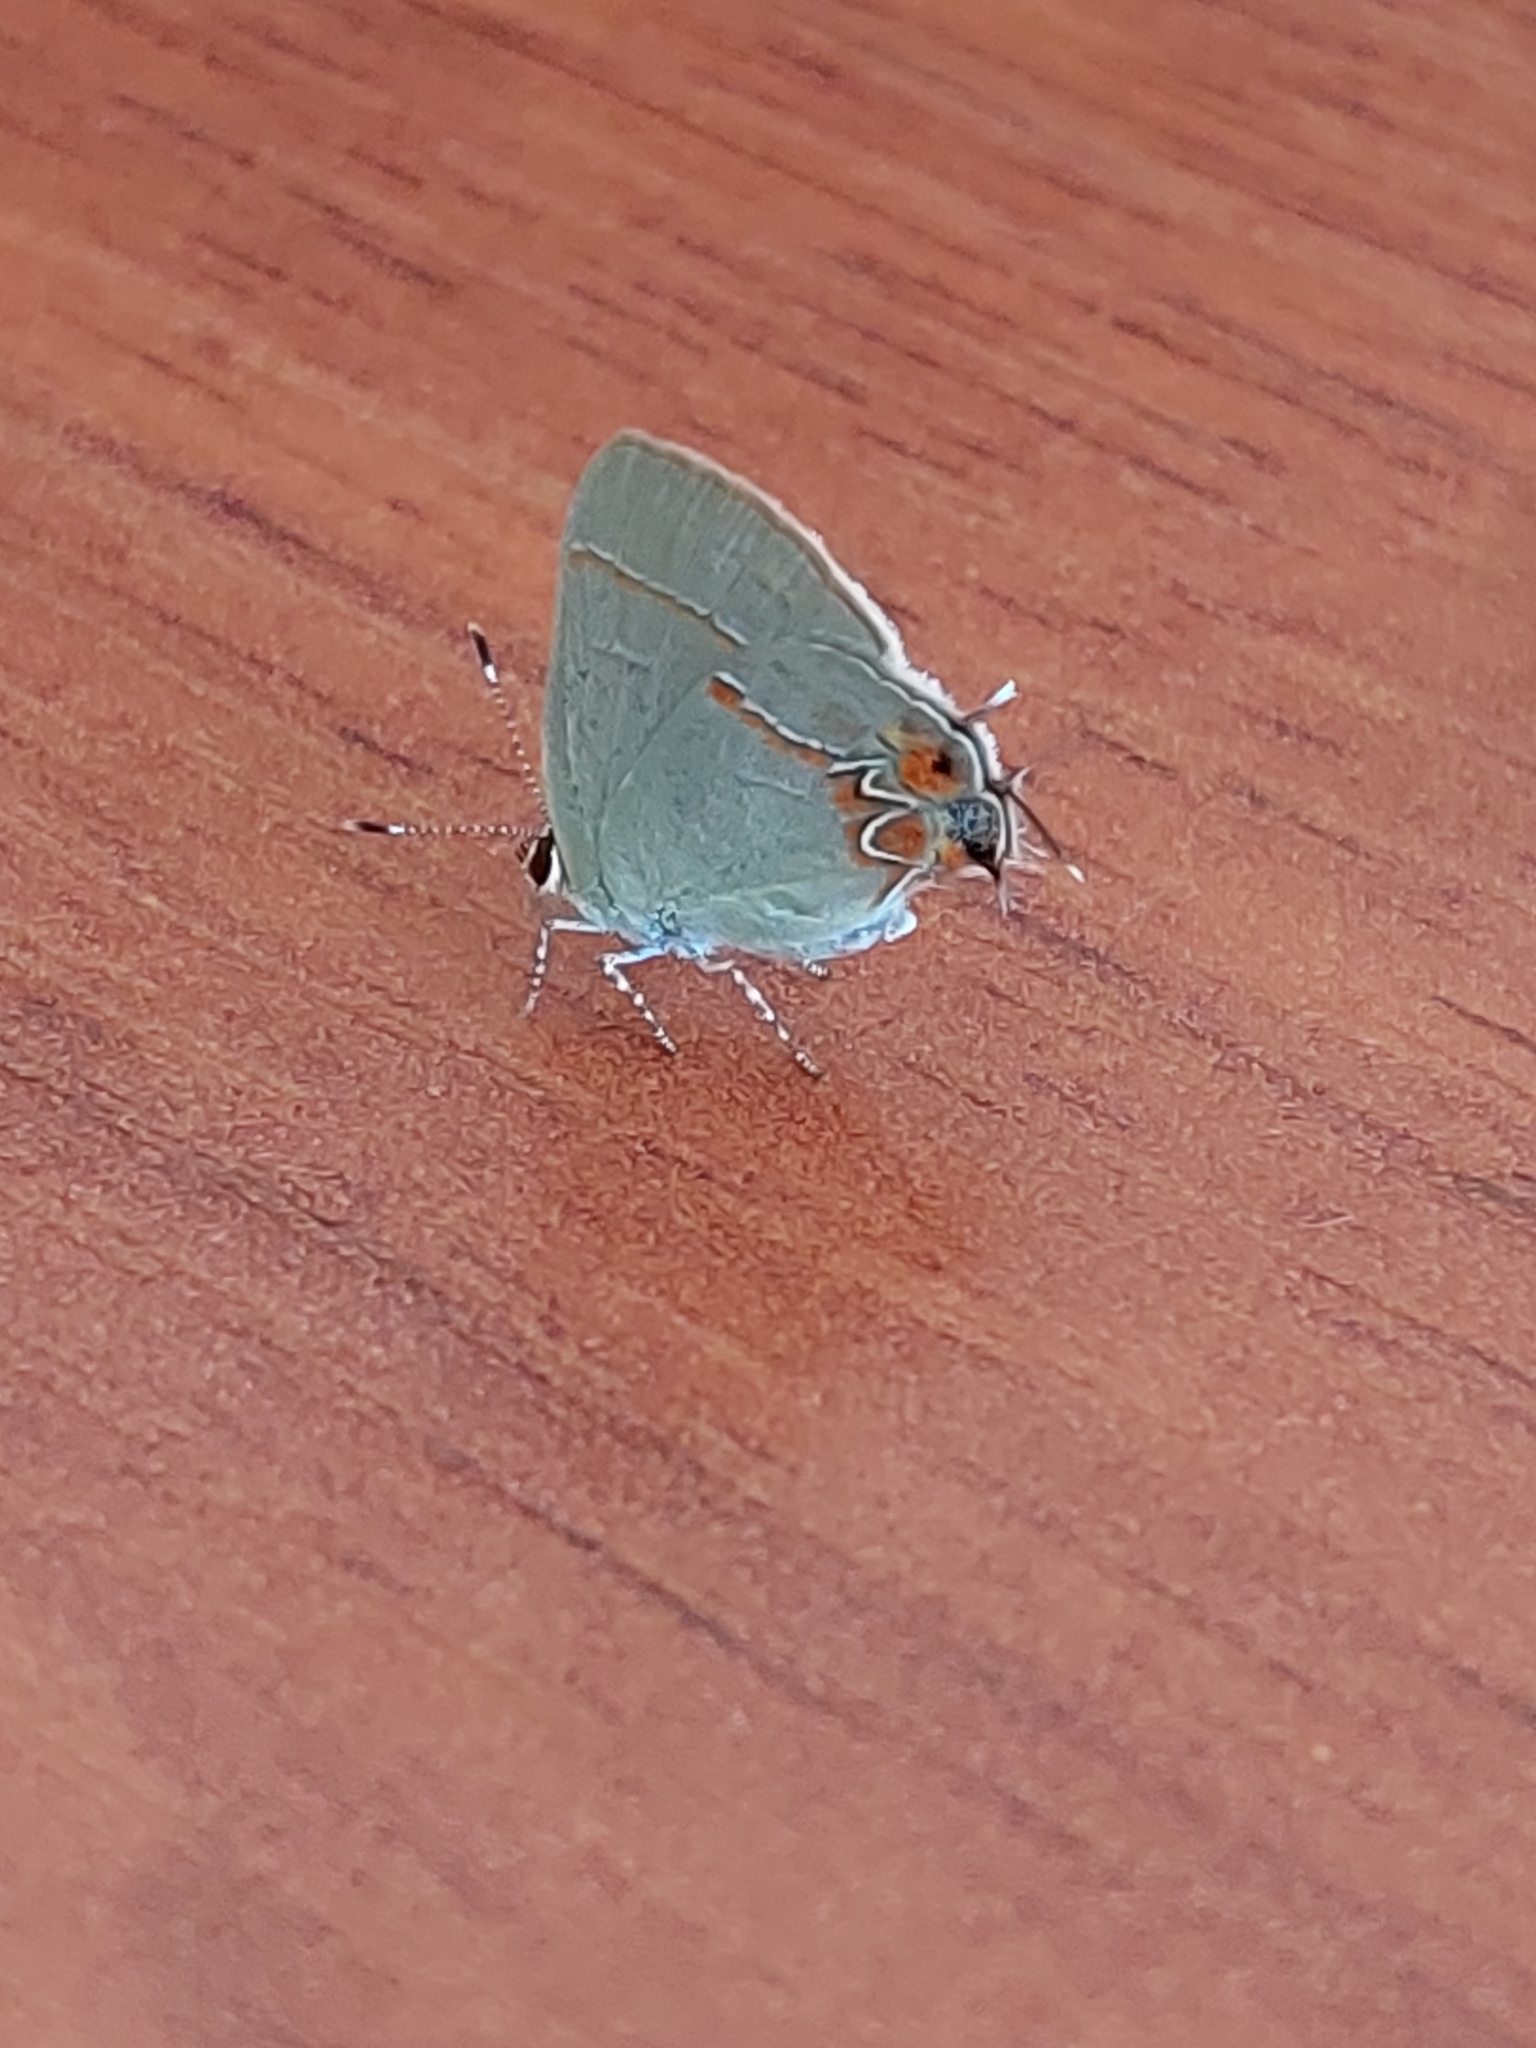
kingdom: Animalia
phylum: Arthropoda
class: Insecta
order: Lepidoptera
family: Lycaenidae
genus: Calycopis
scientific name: Calycopis isobeon
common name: Dusky-blue groundstreak
